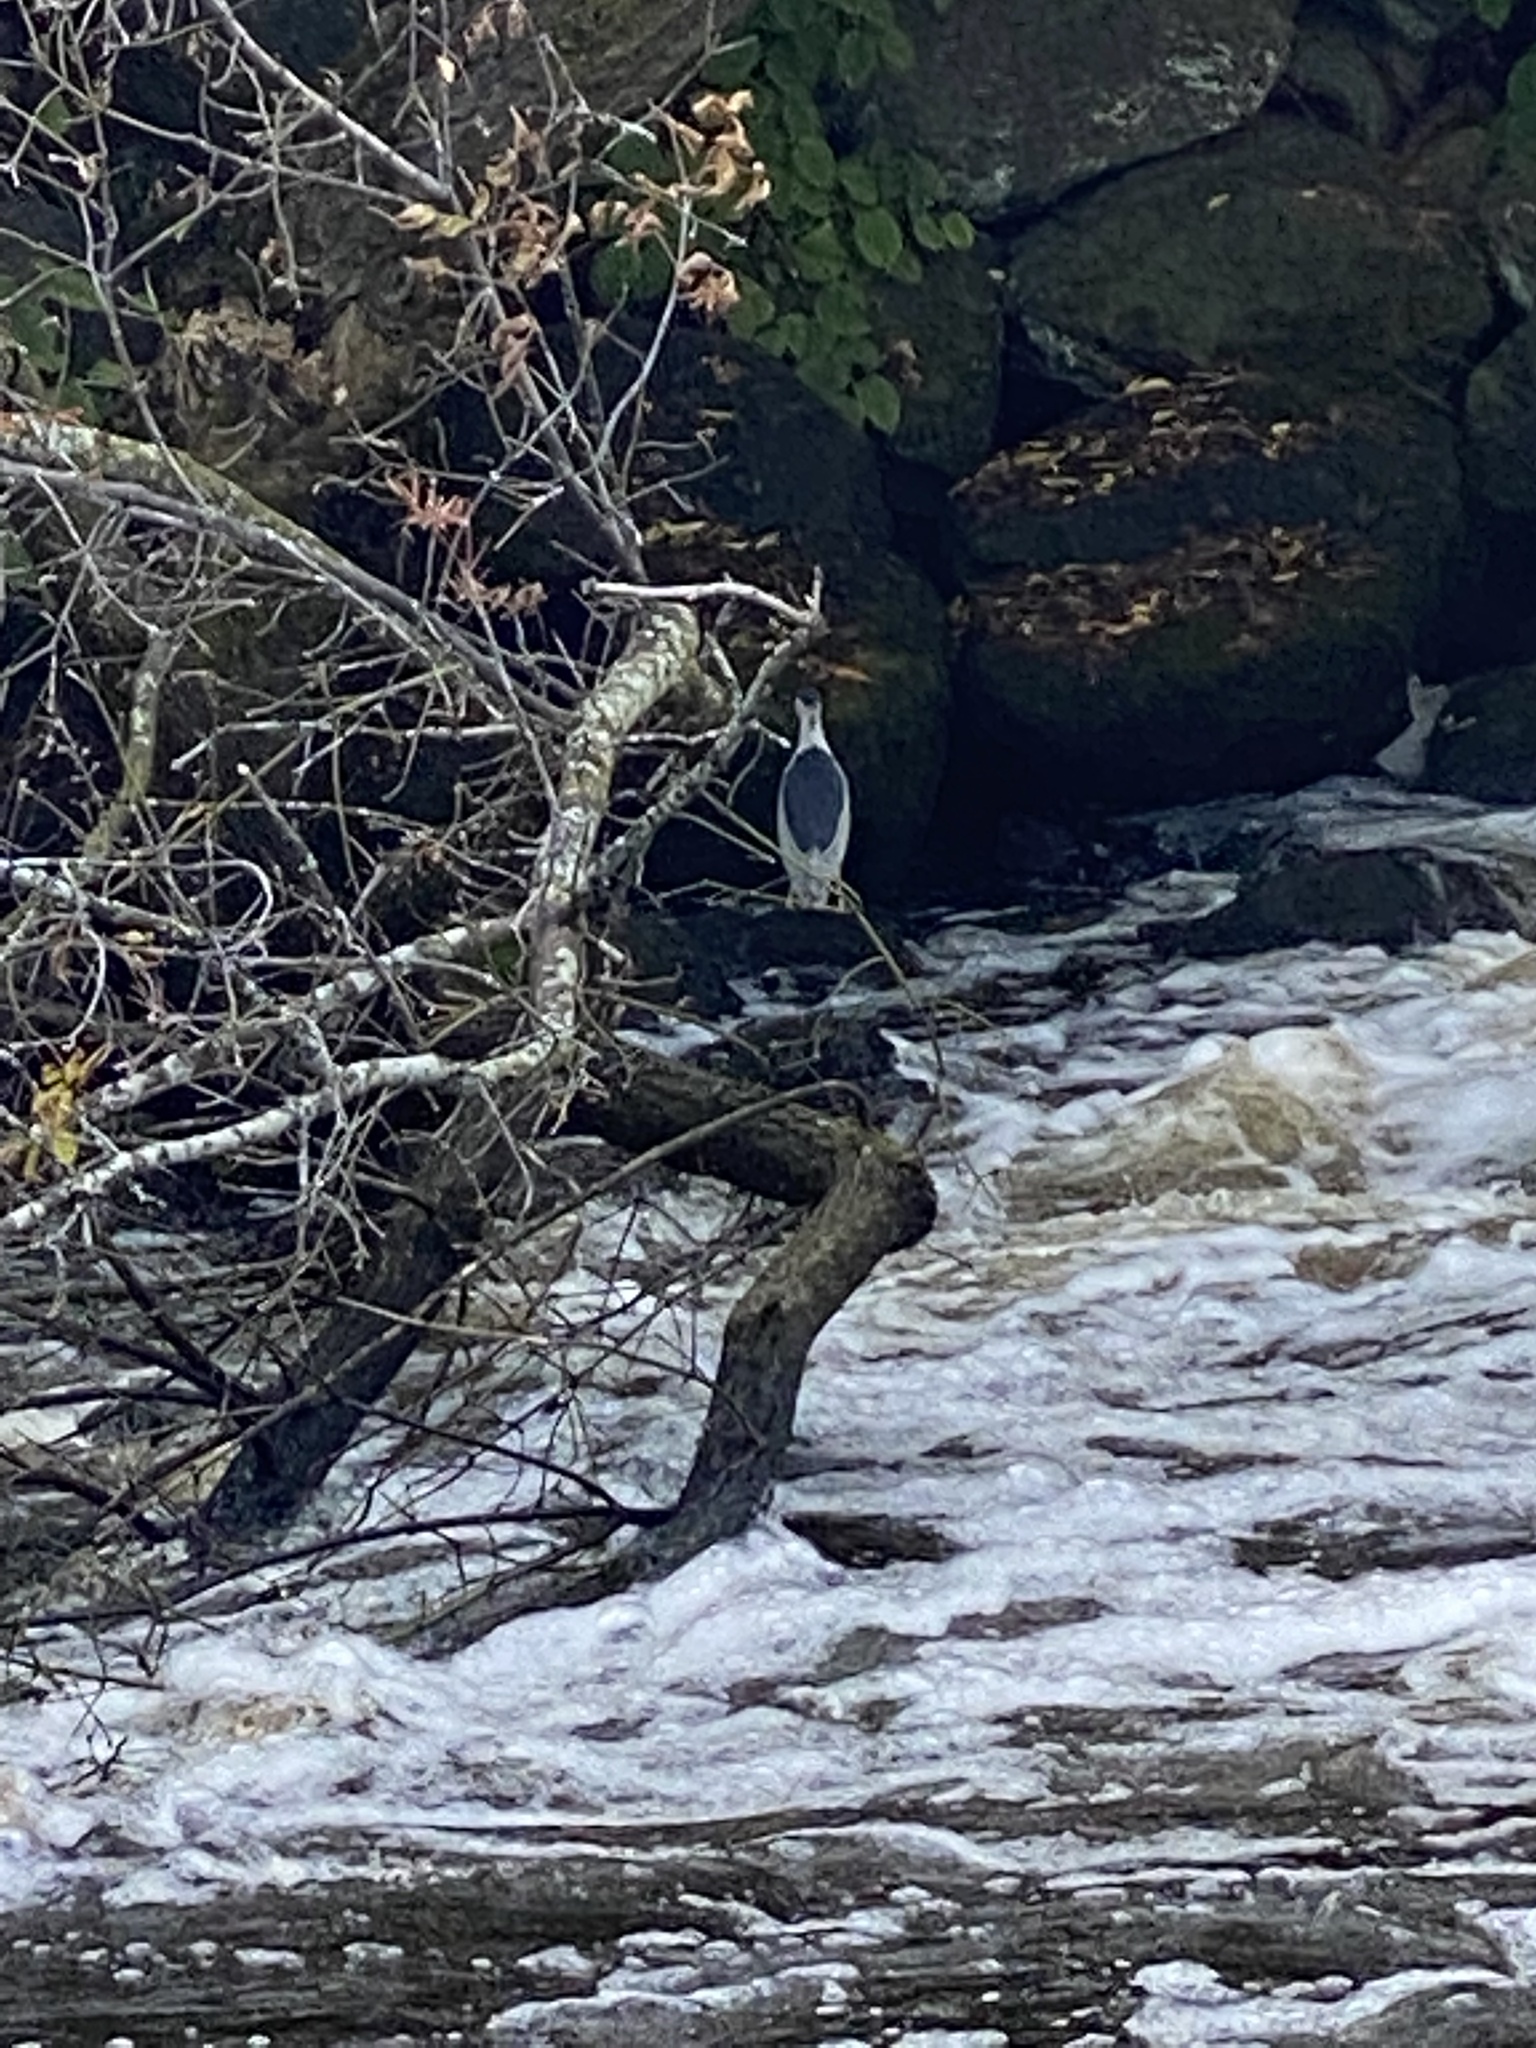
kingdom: Animalia
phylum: Chordata
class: Aves
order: Pelecaniformes
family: Ardeidae
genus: Nycticorax
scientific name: Nycticorax nycticorax
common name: Black-crowned night heron
